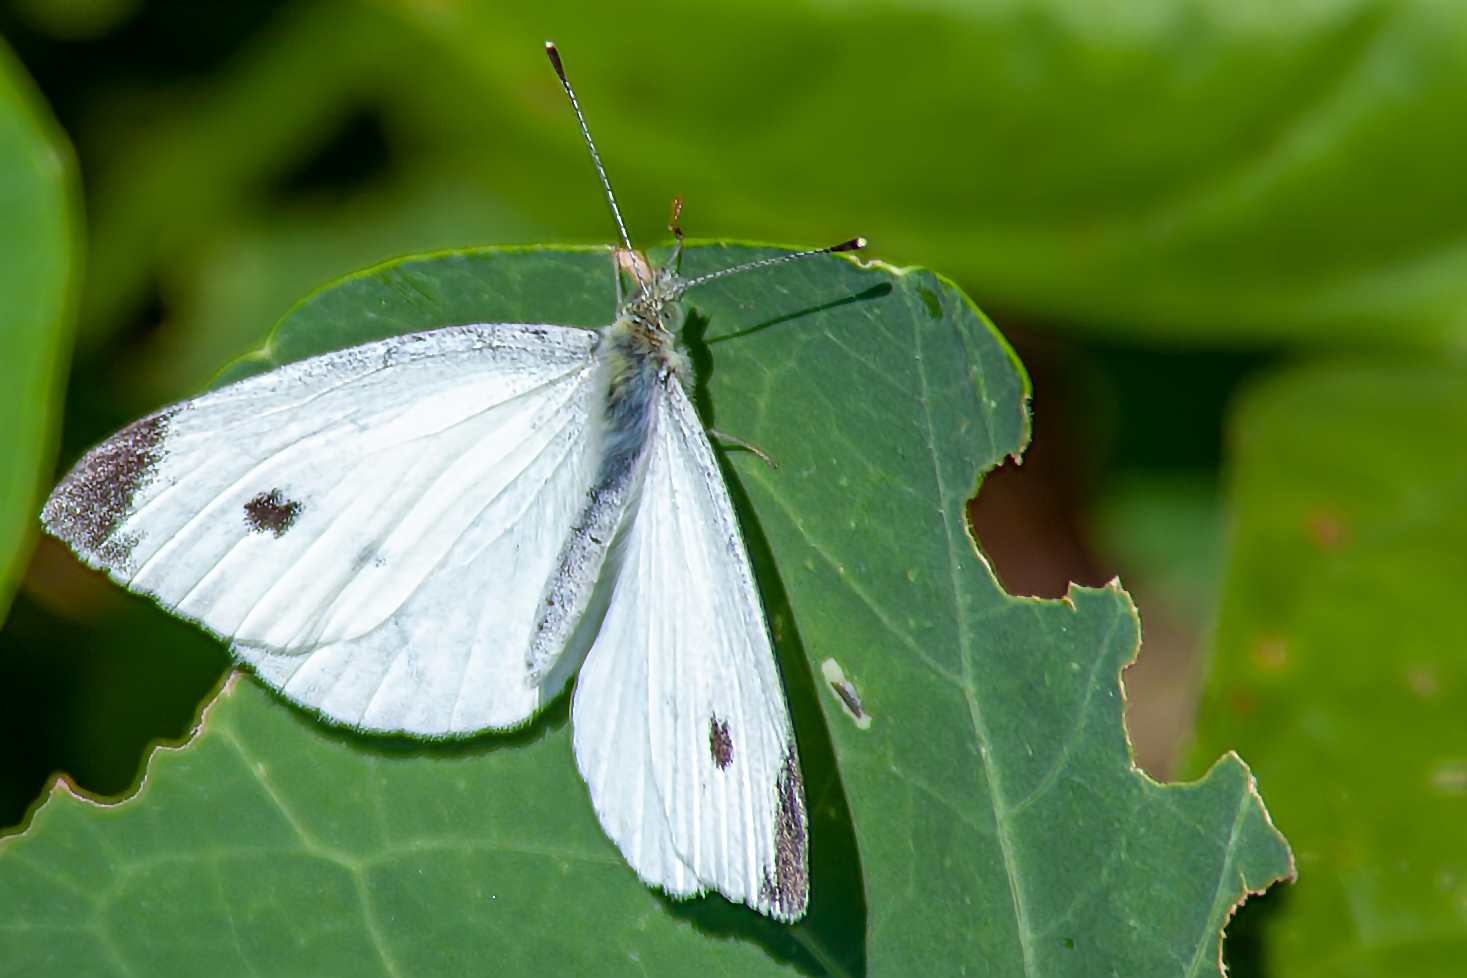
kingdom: Animalia
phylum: Arthropoda
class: Insecta
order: Lepidoptera
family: Pieridae
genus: Pieris
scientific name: Pieris rapae
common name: Small white
